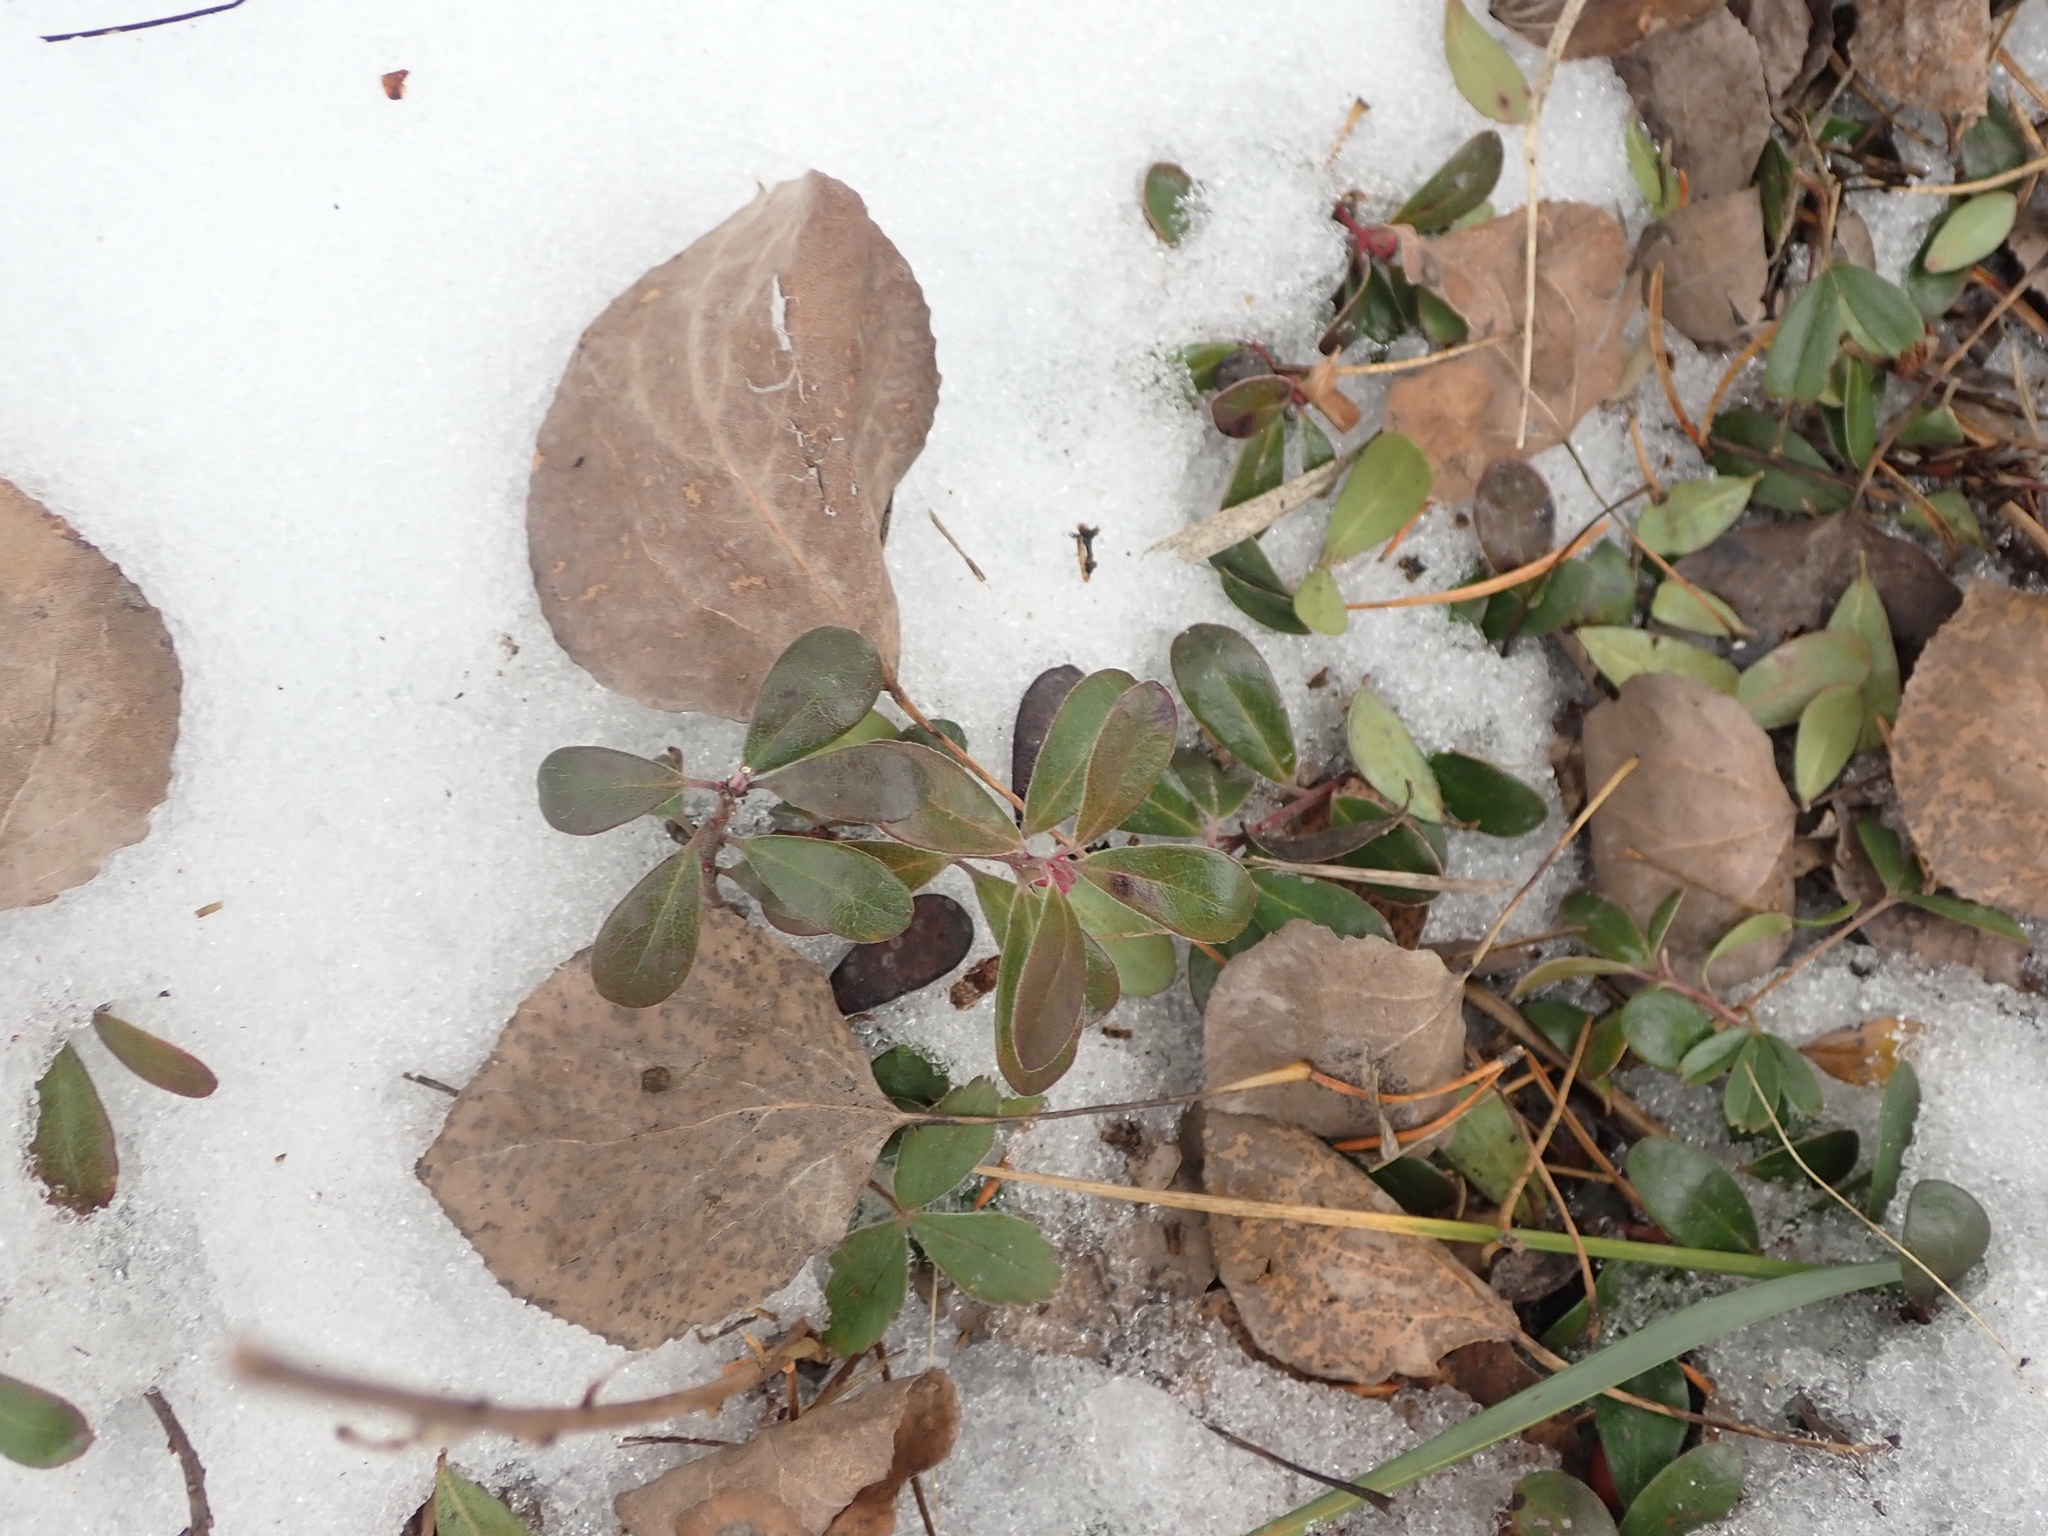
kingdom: Plantae
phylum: Tracheophyta
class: Magnoliopsida
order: Ericales
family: Ericaceae
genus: Arctostaphylos
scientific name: Arctostaphylos uva-ursi
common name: Bearberry
